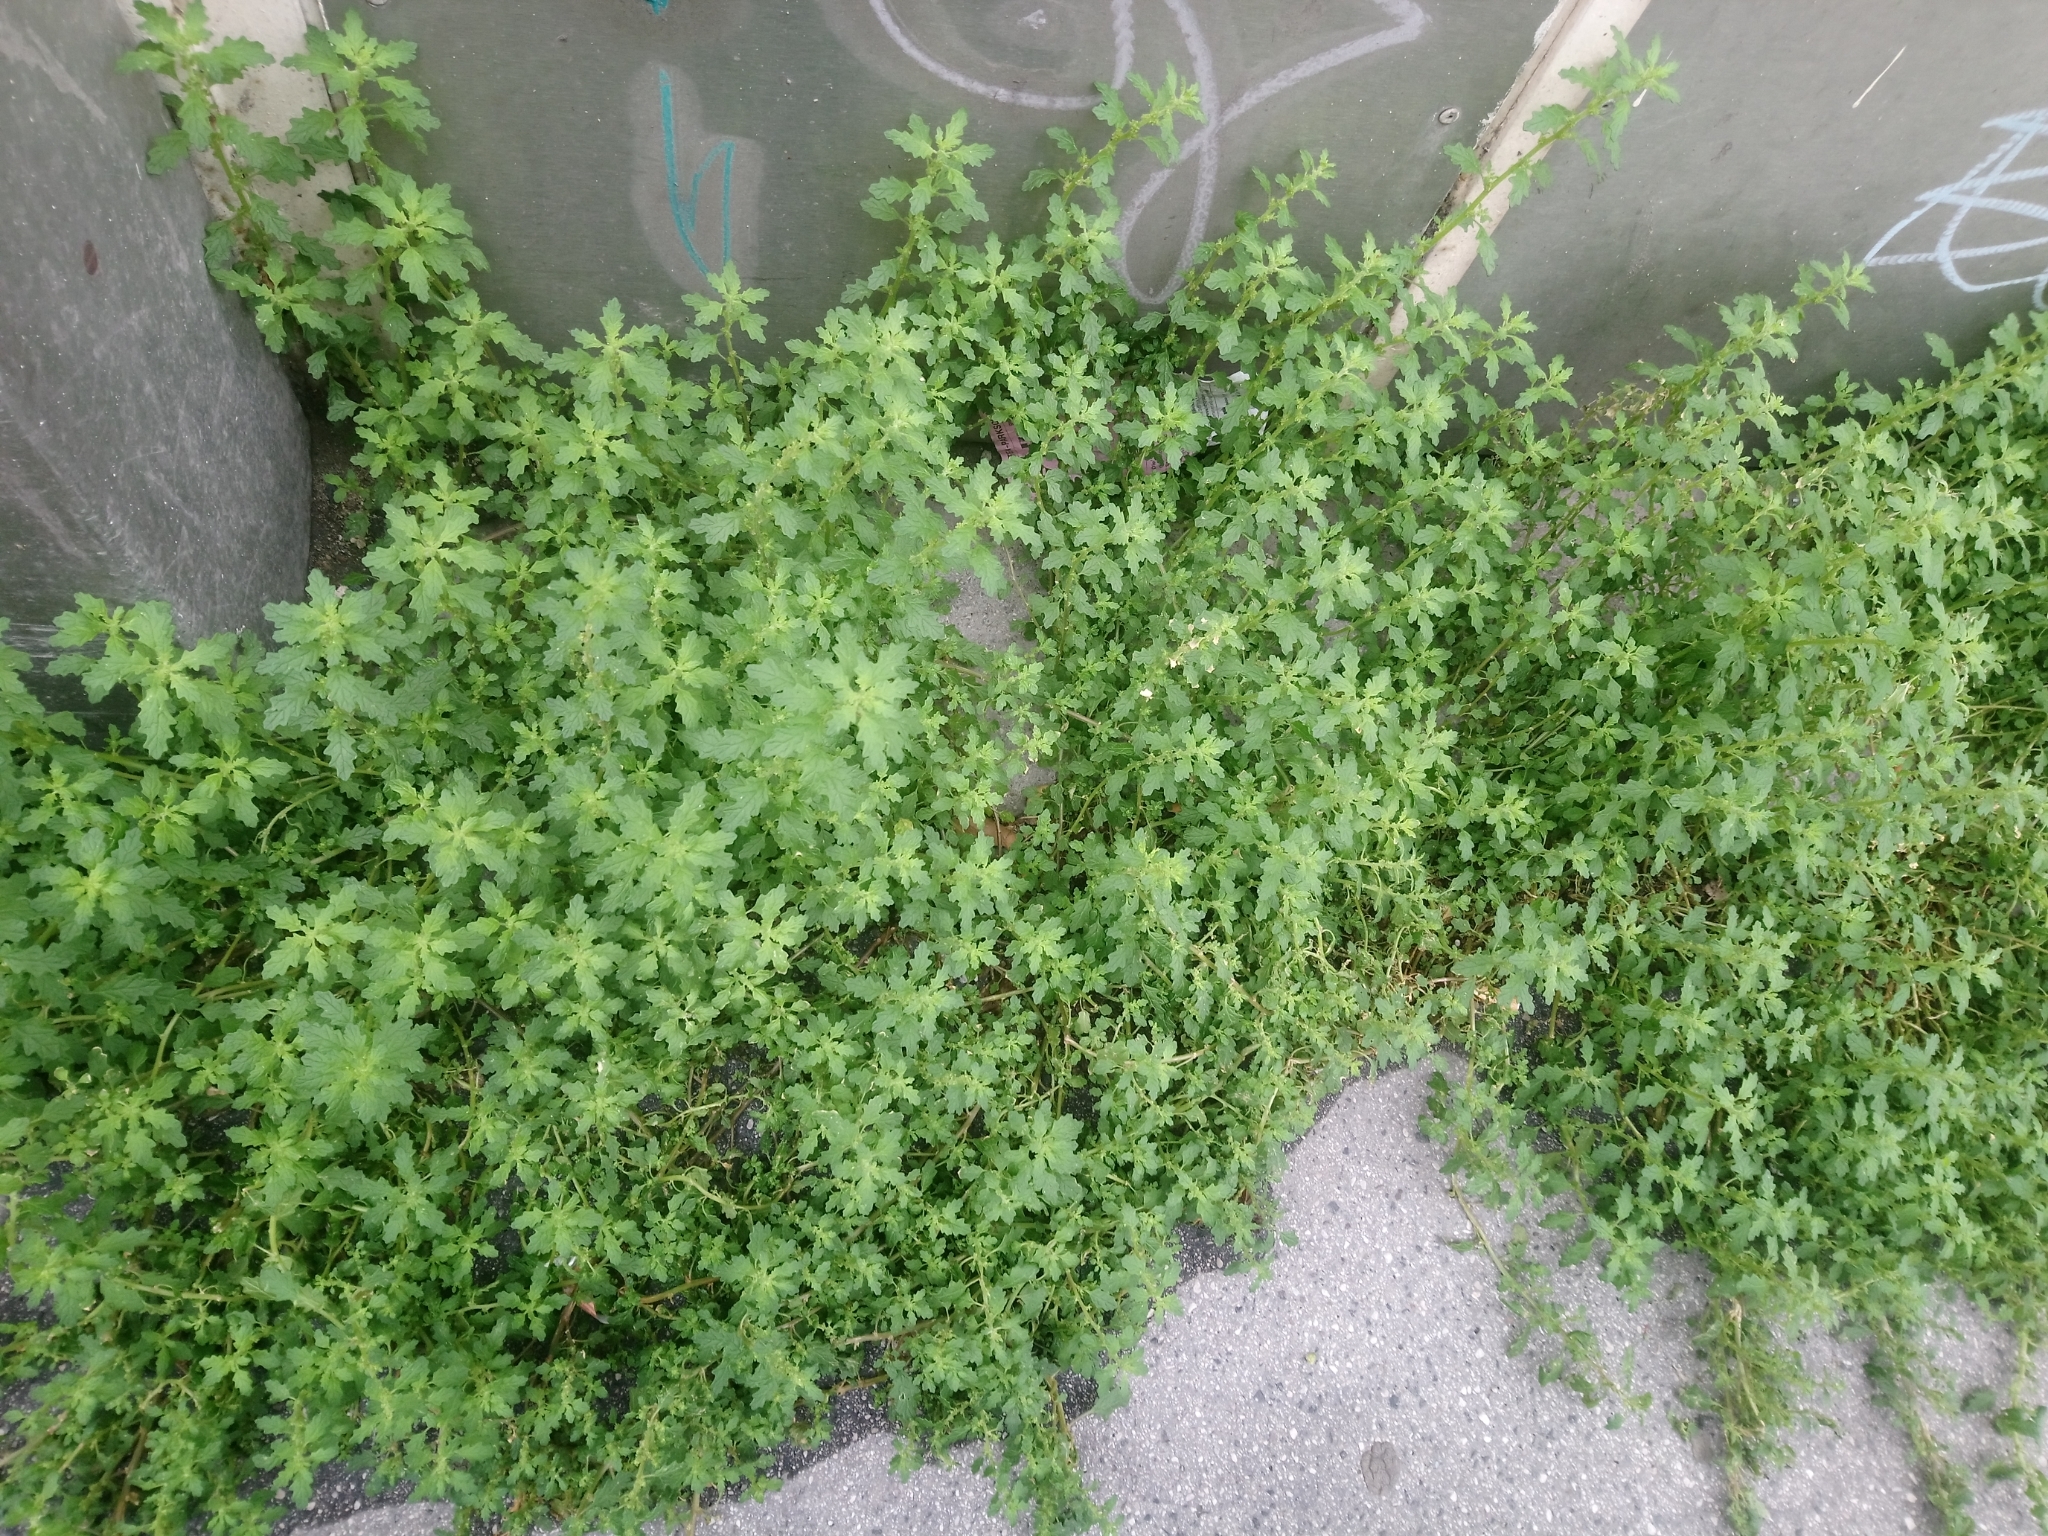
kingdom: Plantae
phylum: Tracheophyta
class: Magnoliopsida
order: Caryophyllales
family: Amaranthaceae
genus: Dysphania
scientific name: Dysphania pumilio
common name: Clammy goosefoot
